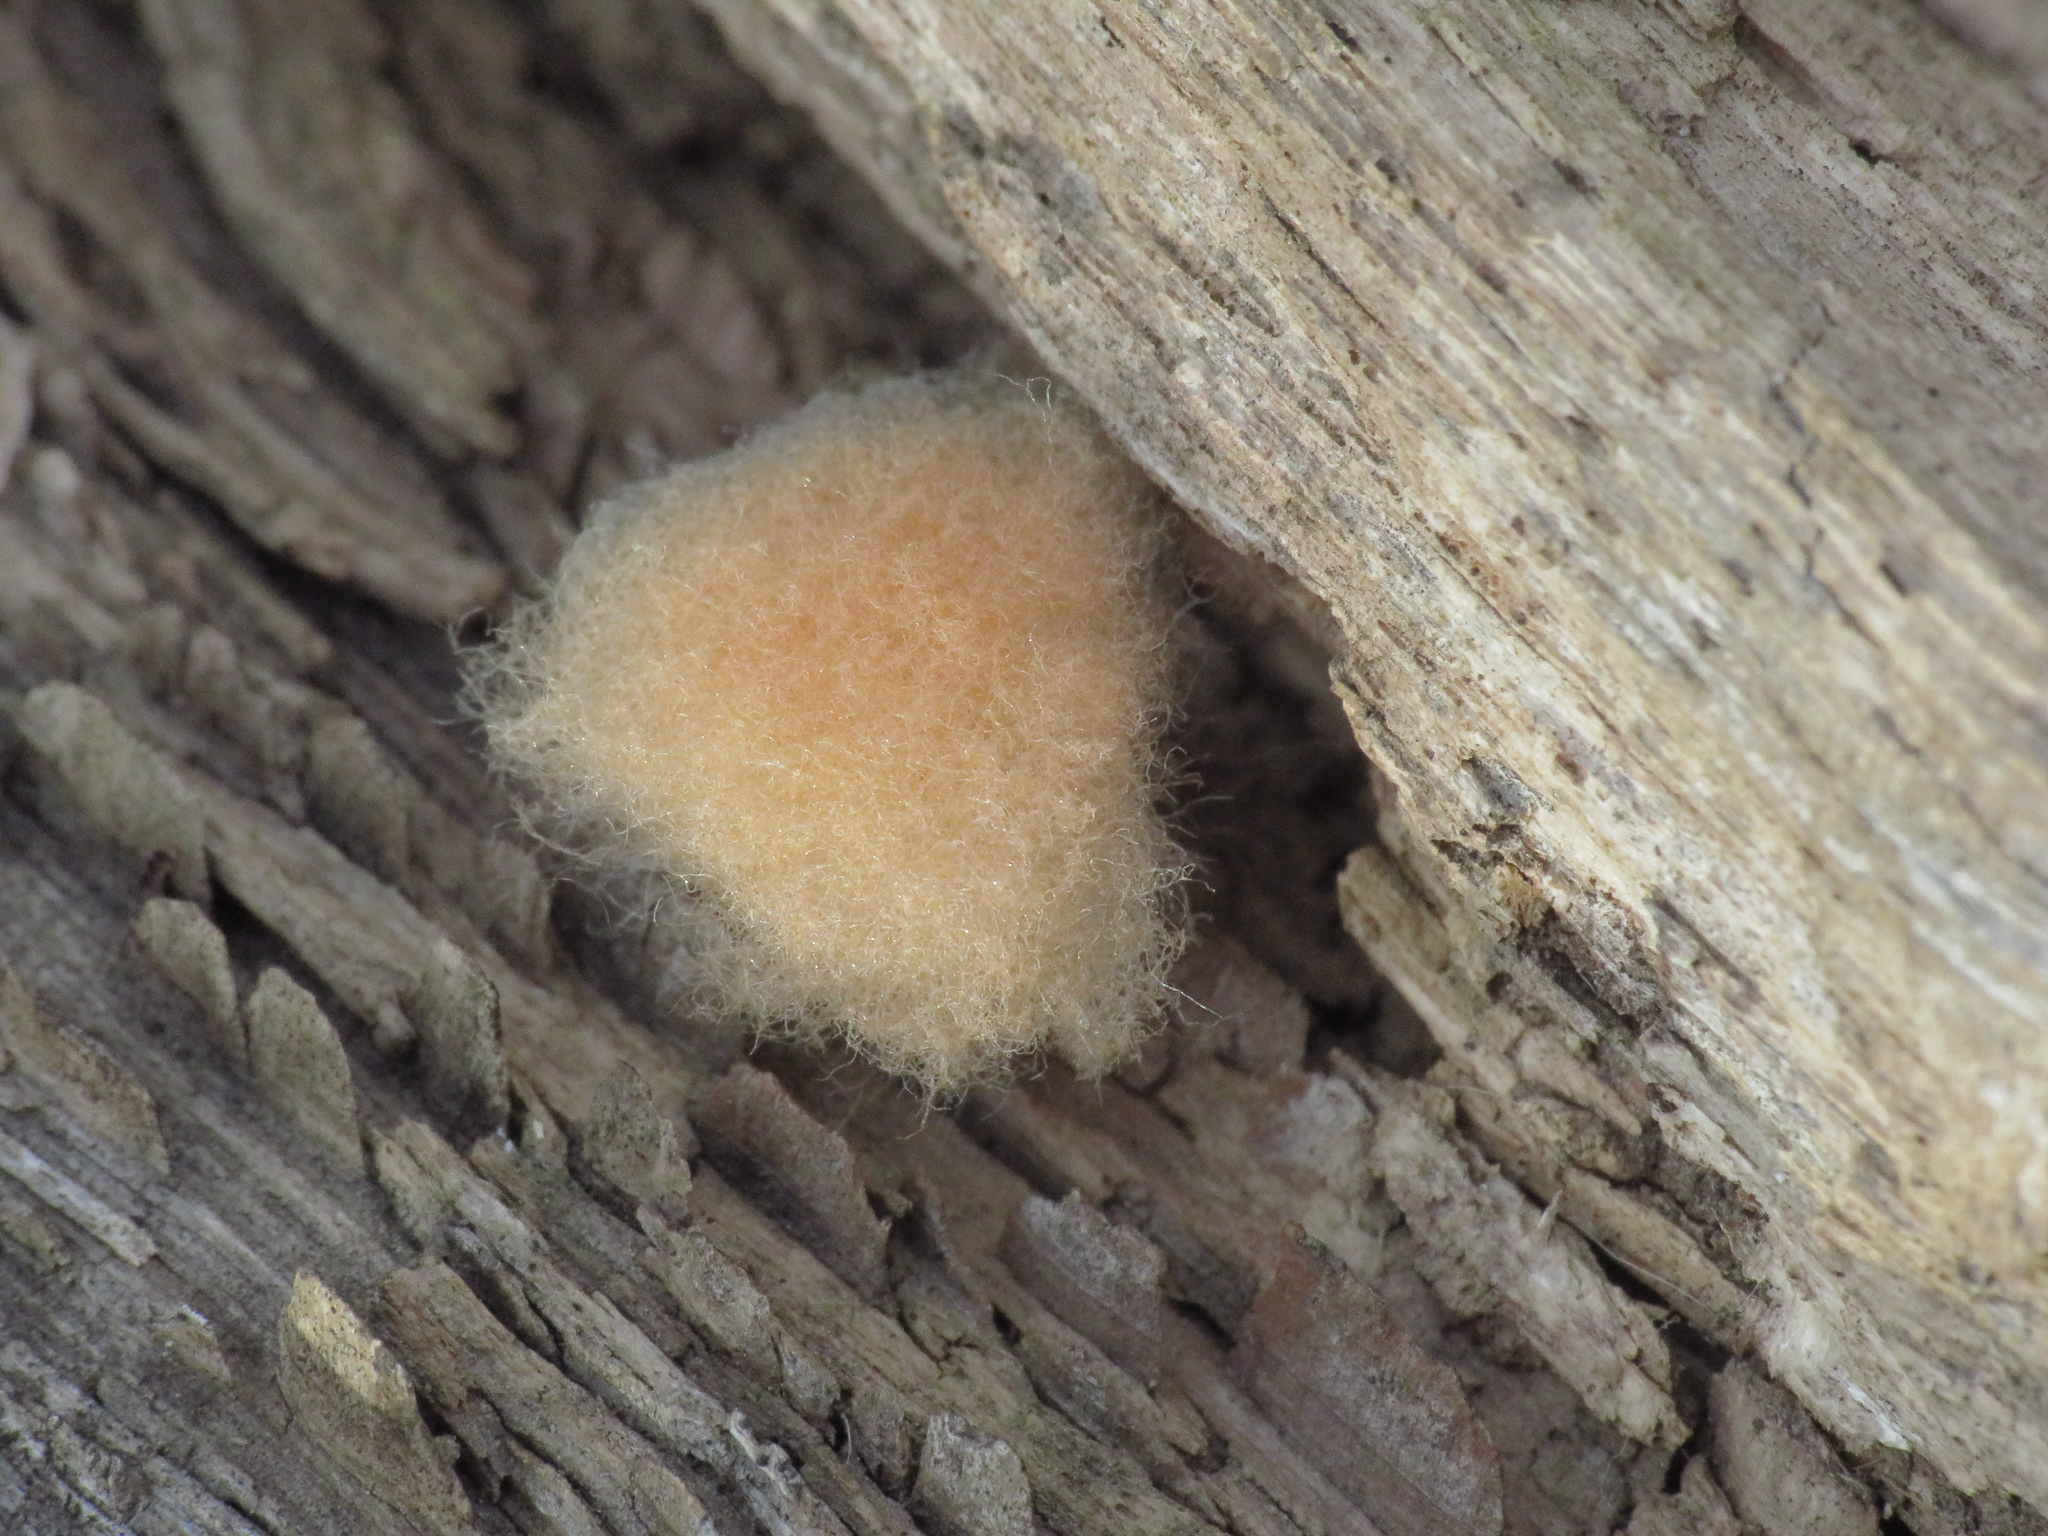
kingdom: Animalia
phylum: Arthropoda
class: Insecta
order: Hymenoptera
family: Cynipidae
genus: Callirhytis
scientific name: Callirhytis
